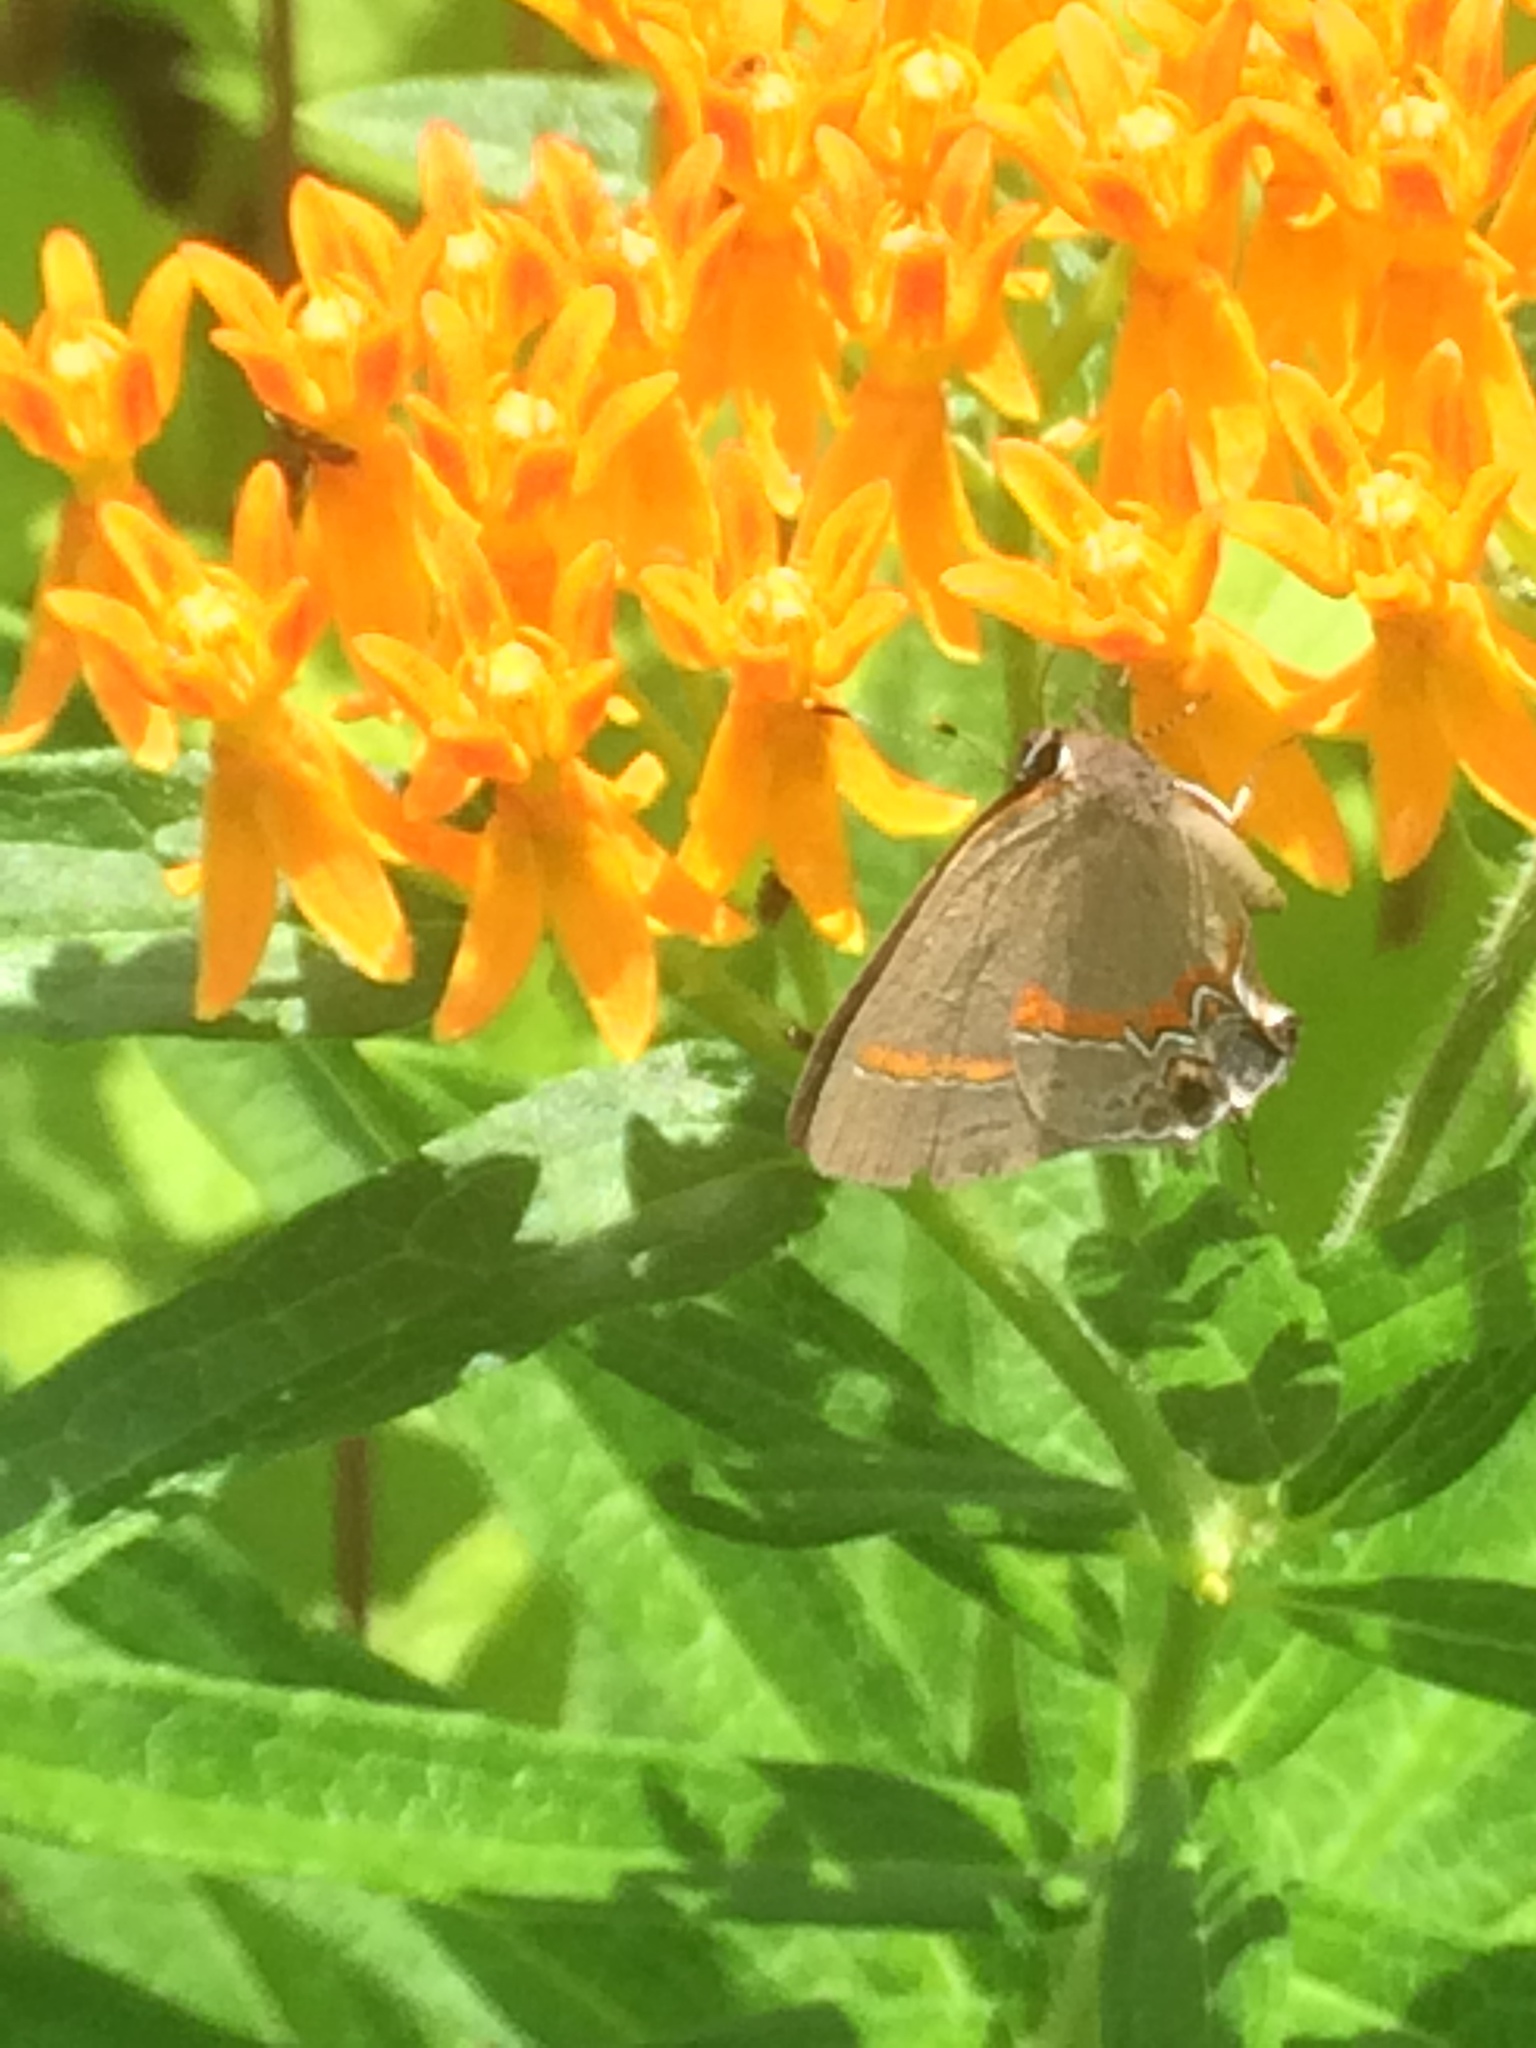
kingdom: Animalia
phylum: Arthropoda
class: Insecta
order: Lepidoptera
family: Lycaenidae
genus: Calycopis
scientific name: Calycopis cecrops
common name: Red-banded hairstreak
